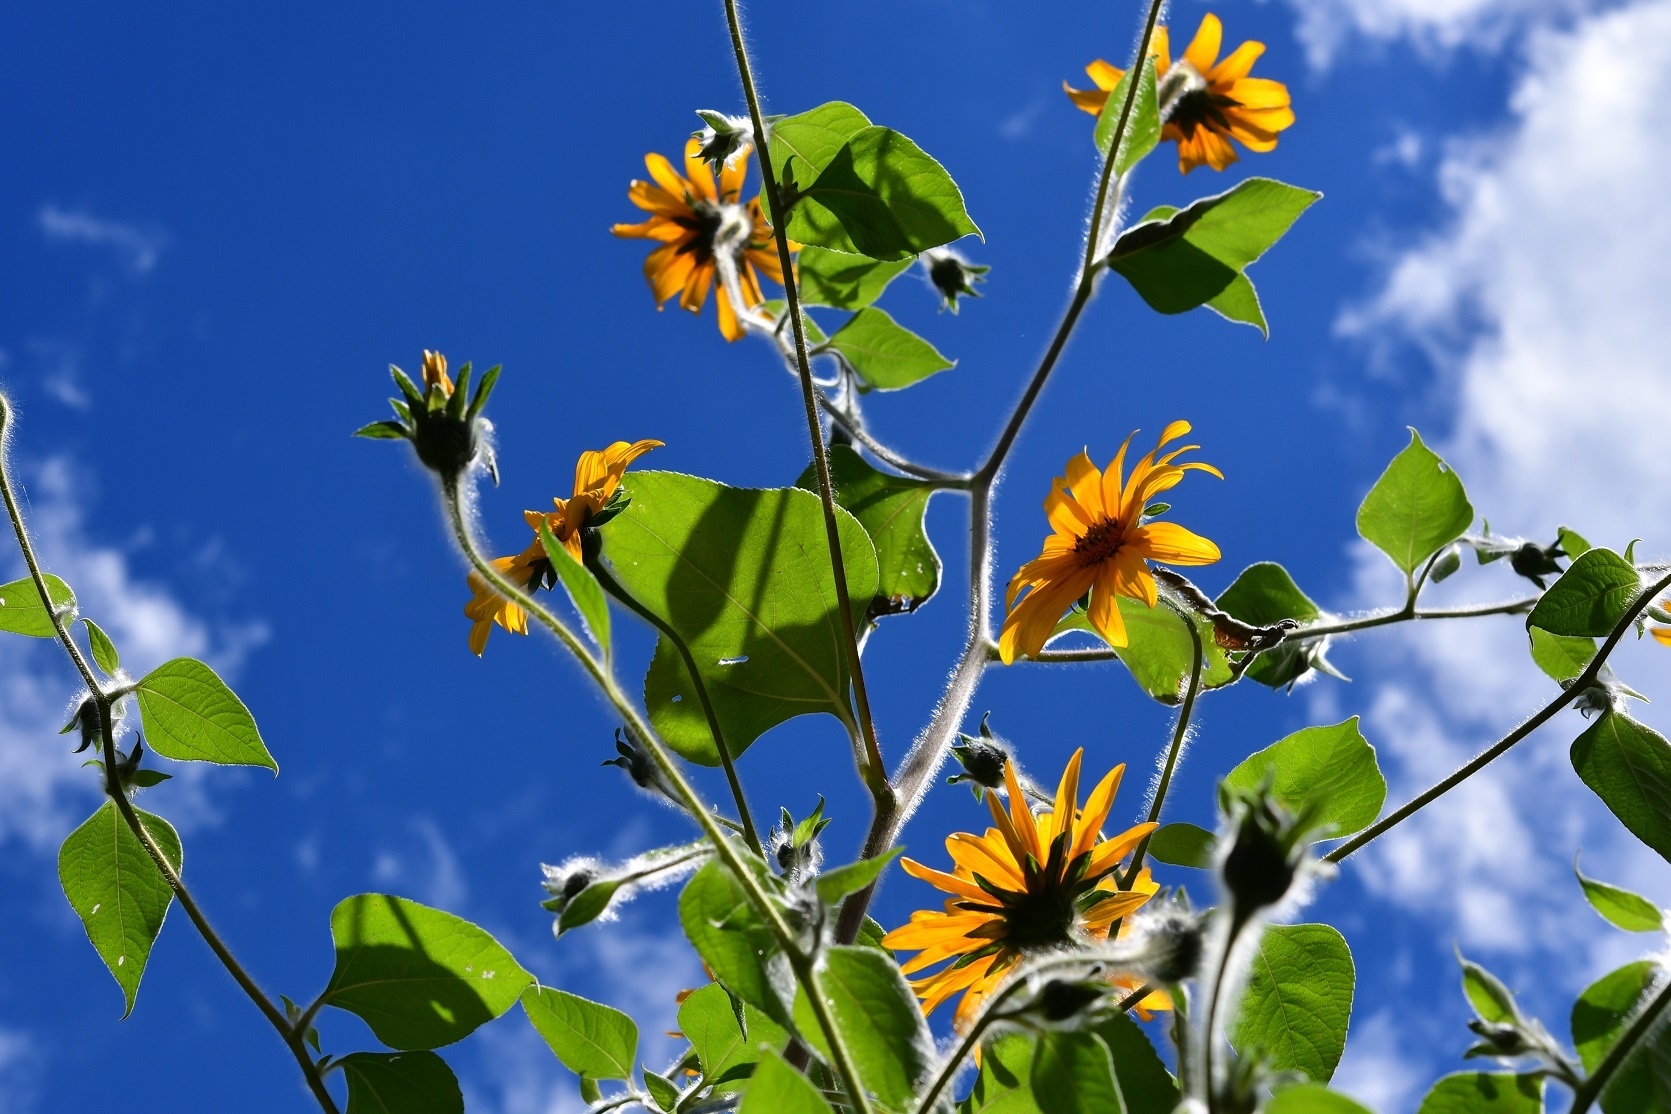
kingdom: Plantae
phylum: Tracheophyta
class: Magnoliopsida
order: Asterales
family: Asteraceae
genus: Tithonia
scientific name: Tithonia tubaeformis
